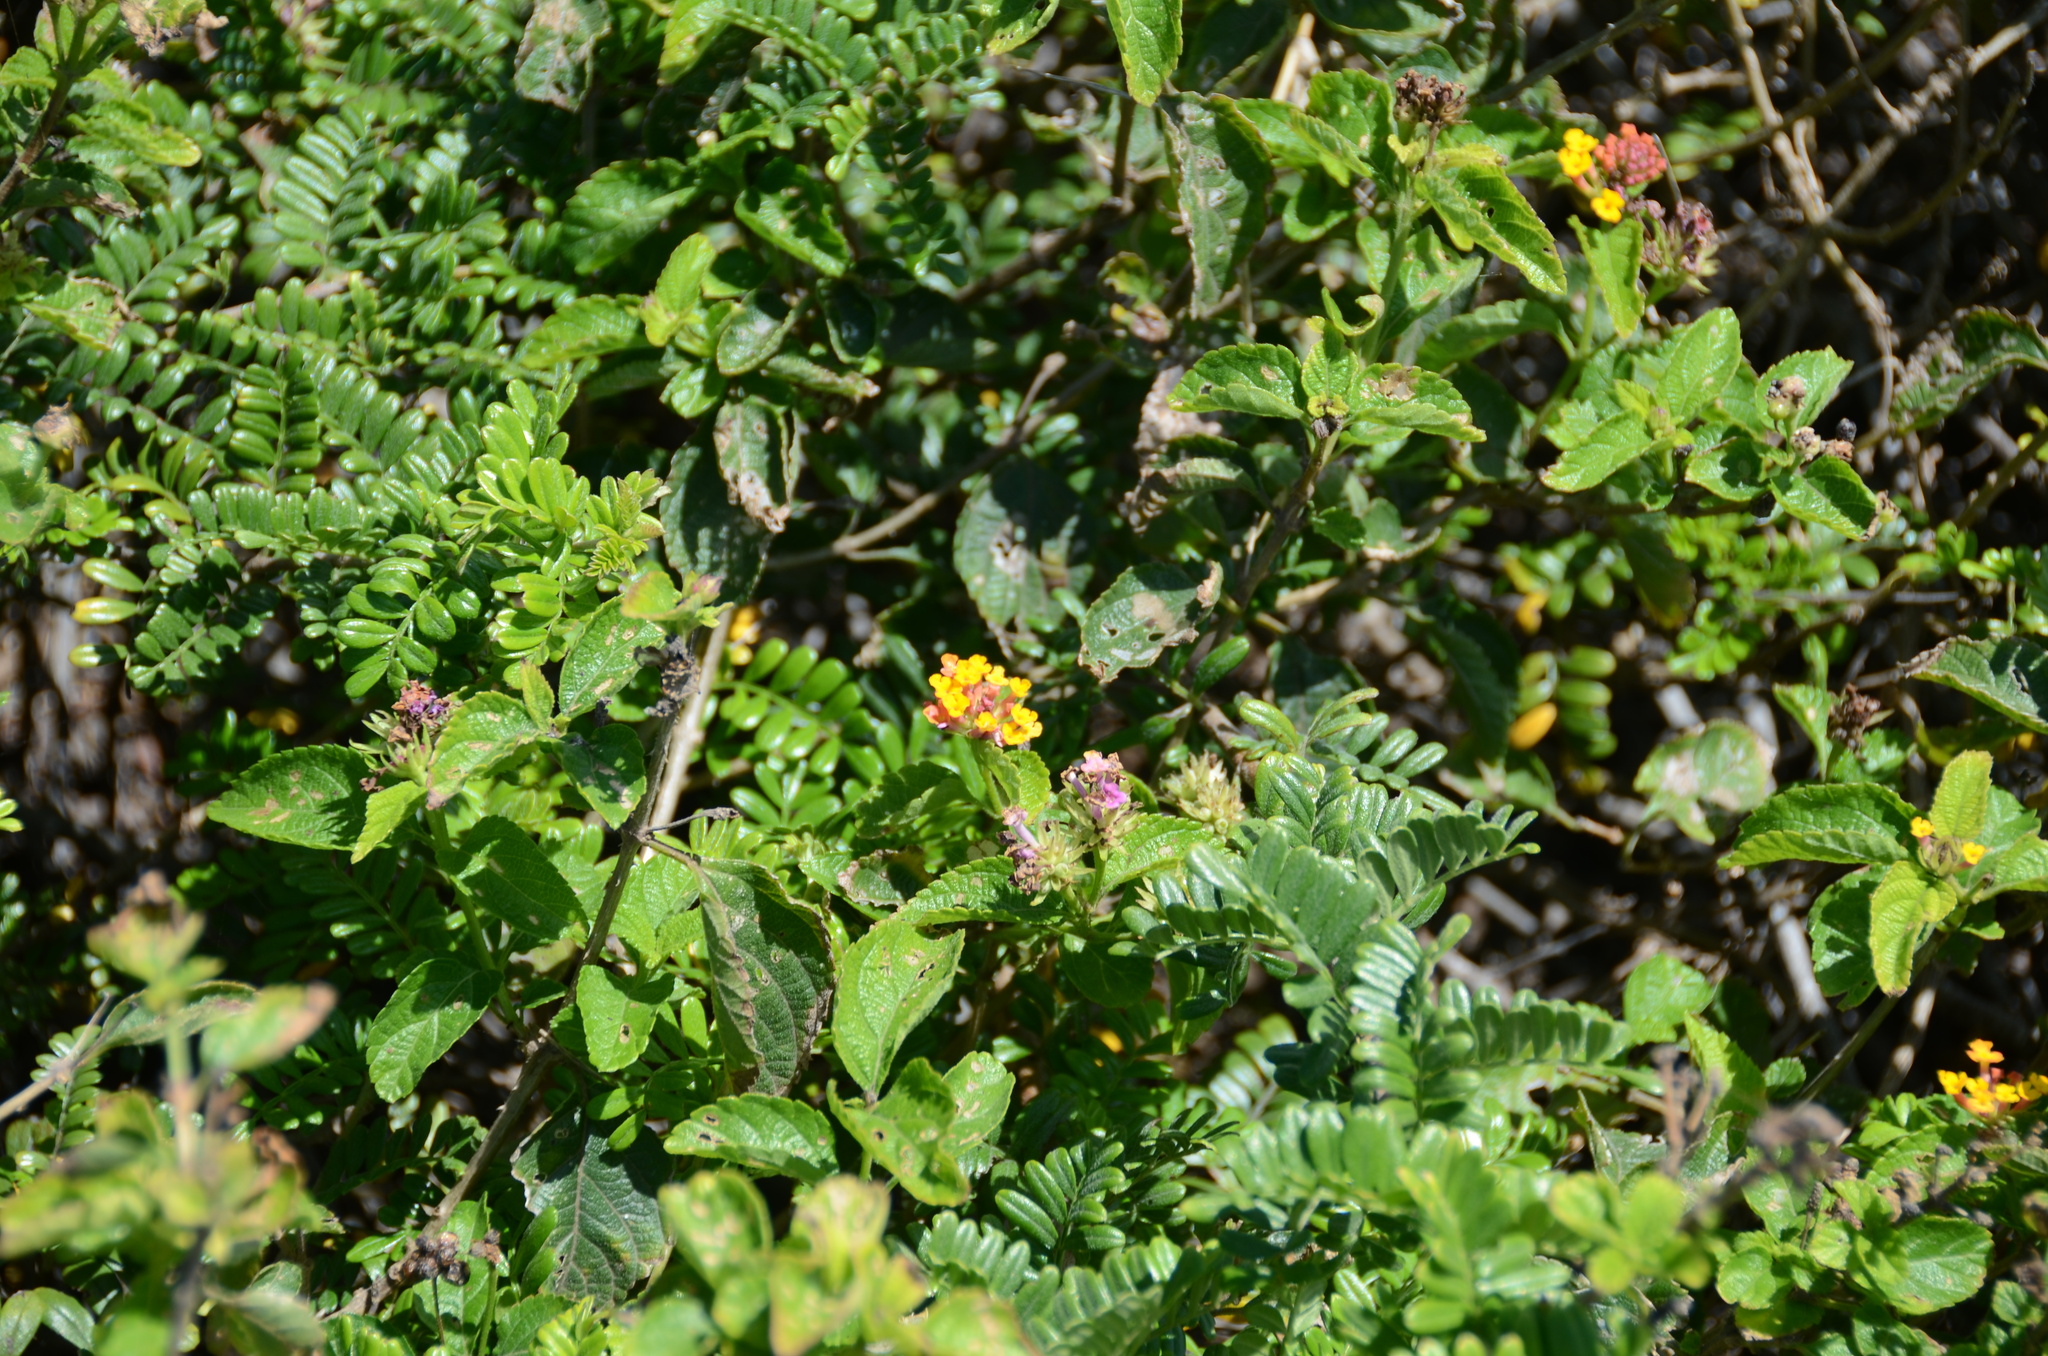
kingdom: Plantae
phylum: Tracheophyta
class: Magnoliopsida
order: Lamiales
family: Verbenaceae
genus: Lantana
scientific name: Lantana camara
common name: Lantana
